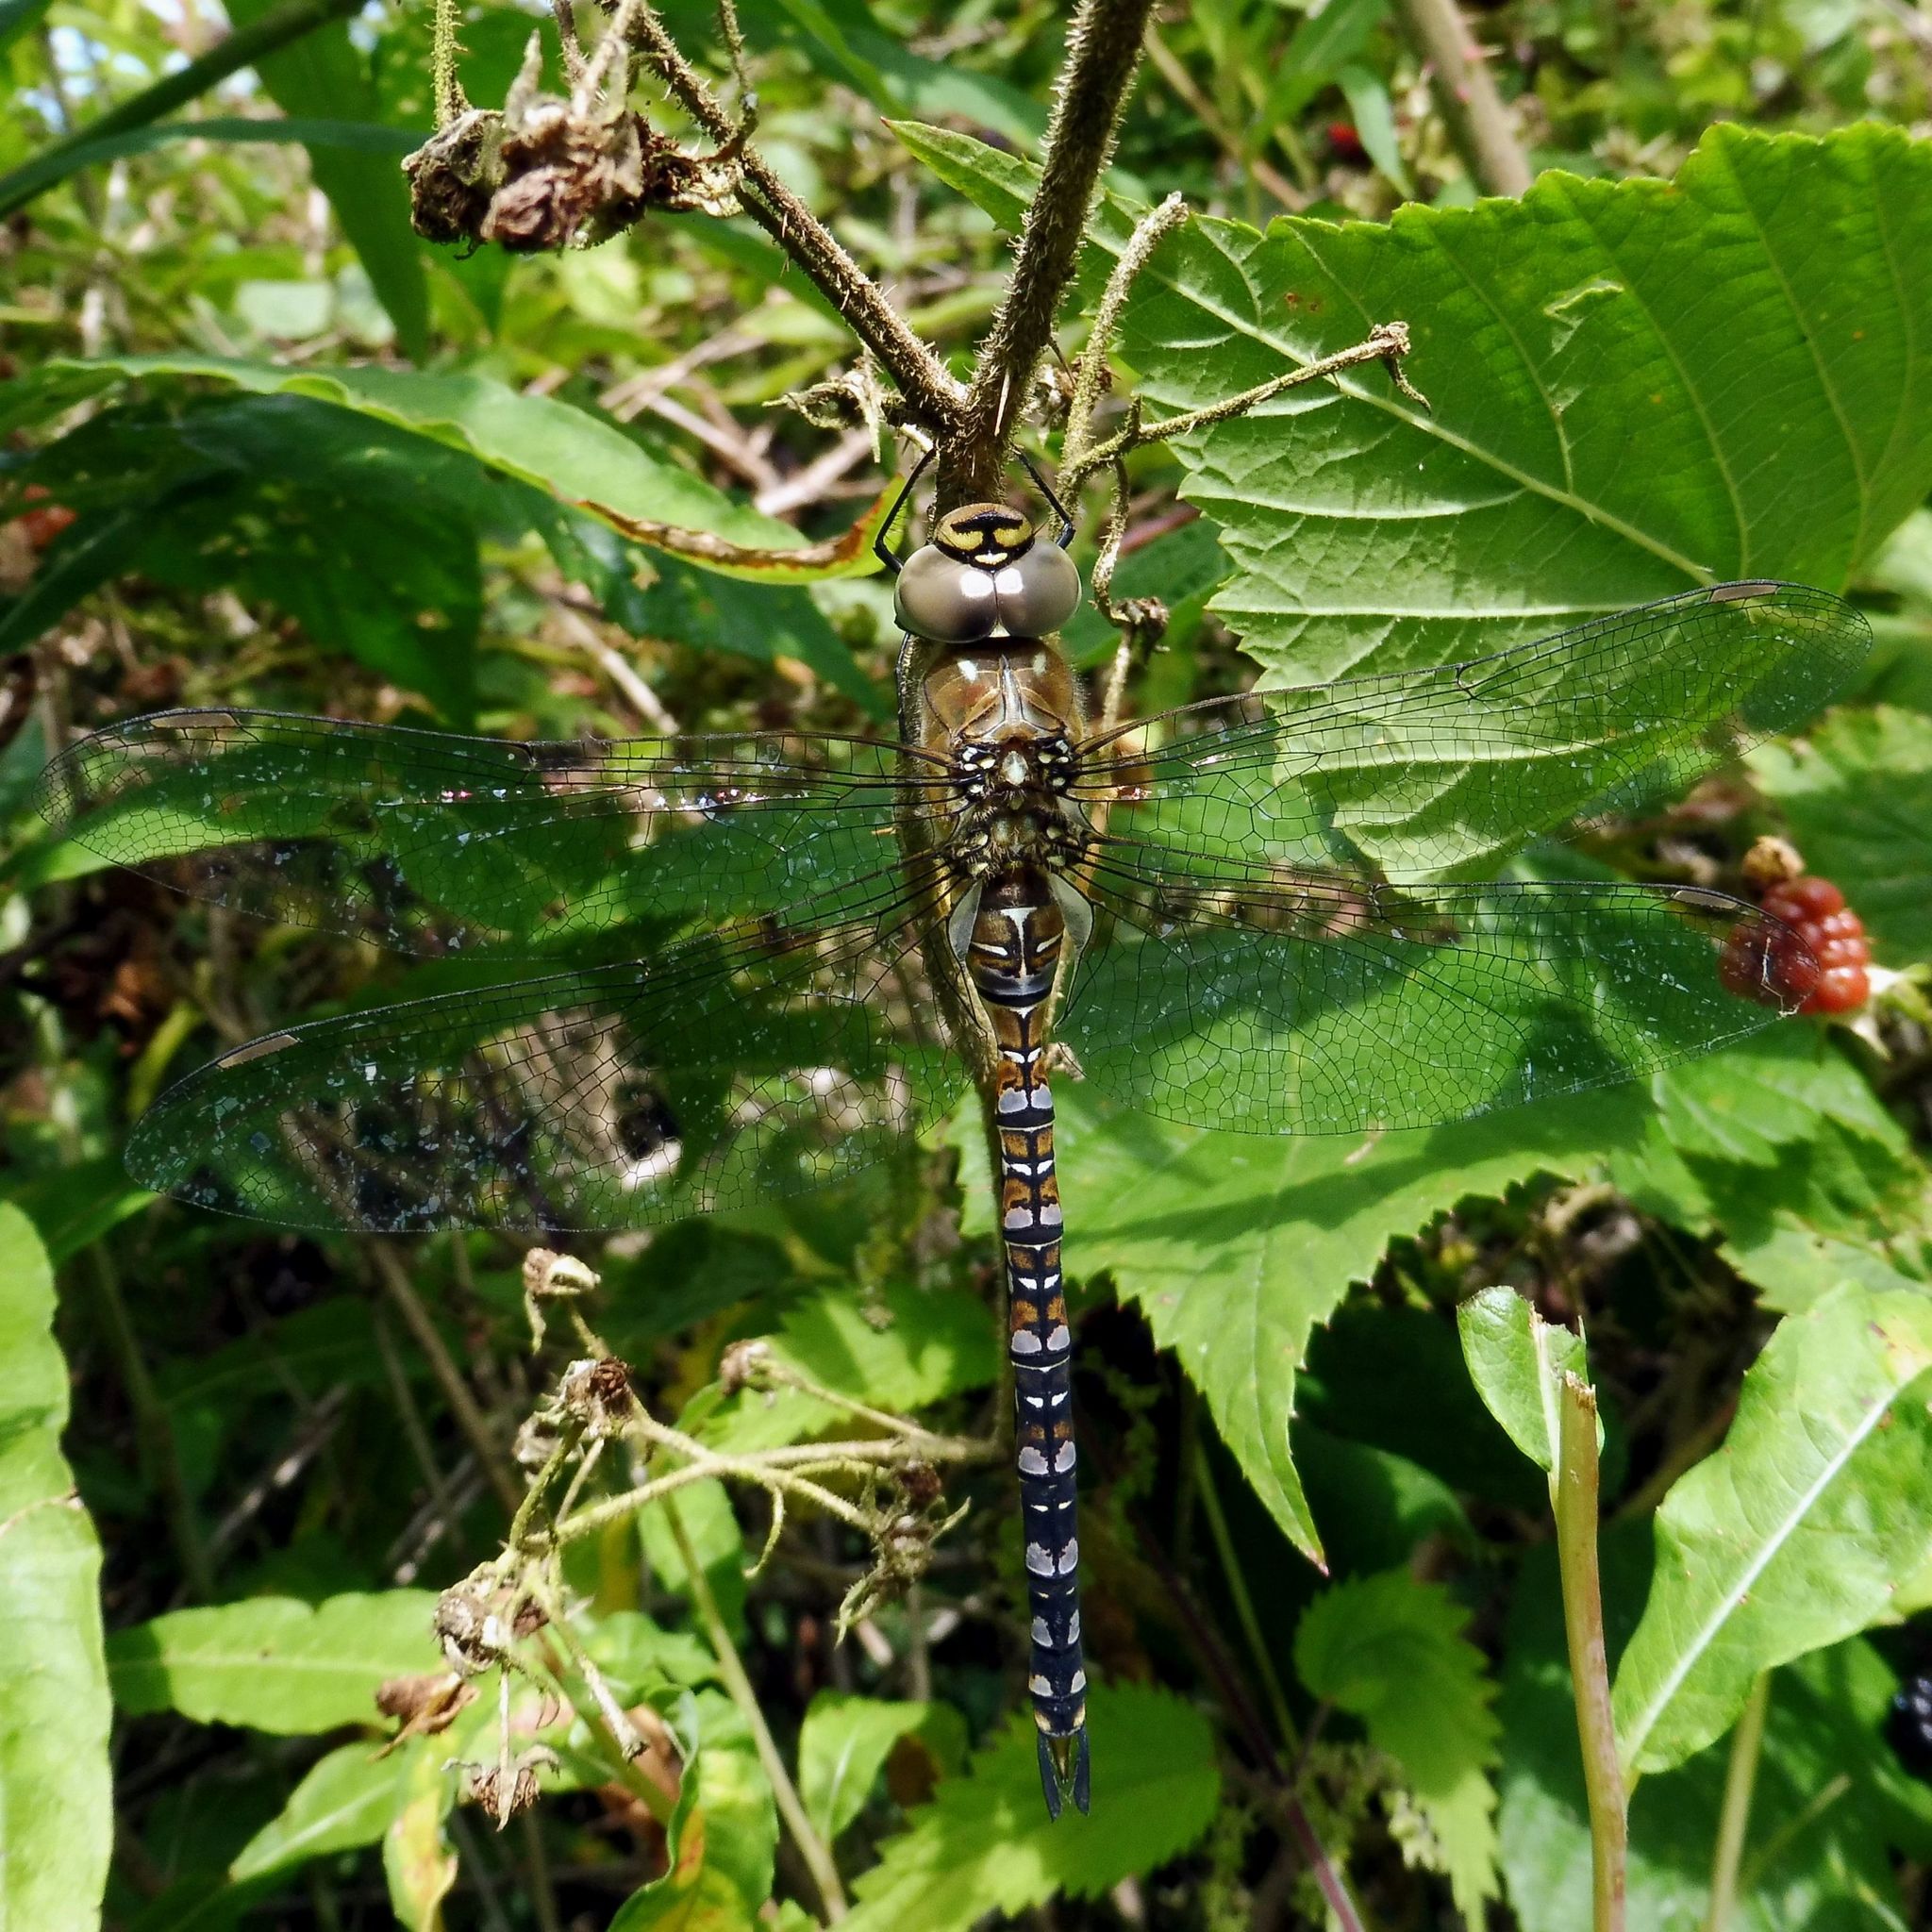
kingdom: Animalia
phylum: Arthropoda
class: Insecta
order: Odonata
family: Aeshnidae
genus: Aeshna
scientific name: Aeshna mixta
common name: Migrant hawker
